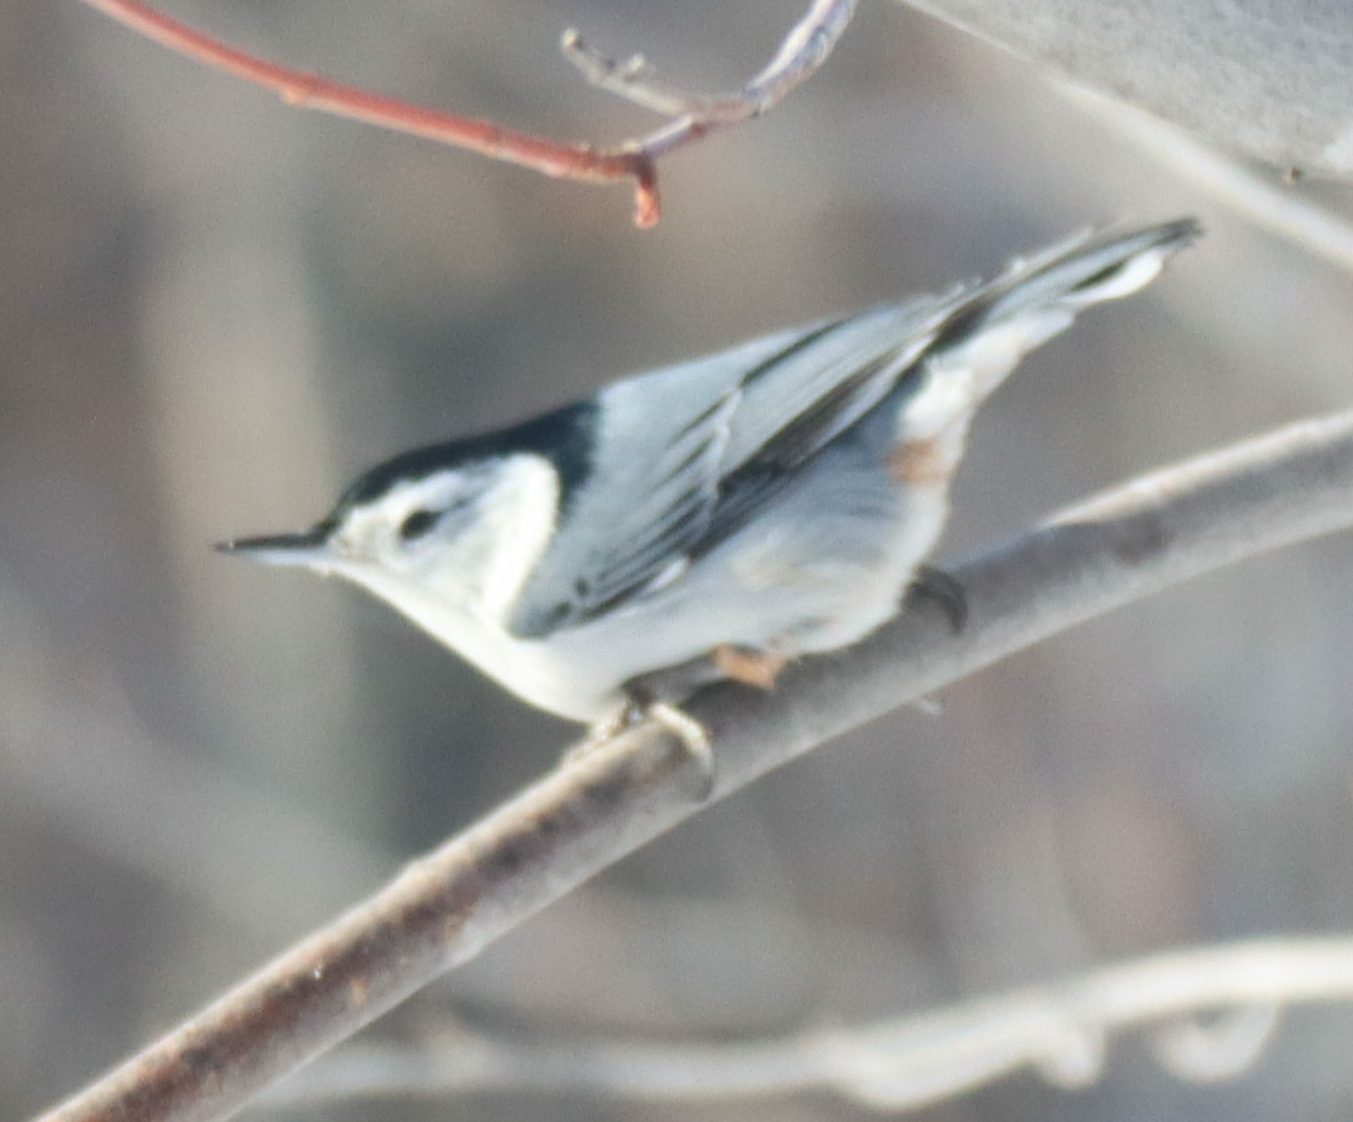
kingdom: Animalia
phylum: Chordata
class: Aves
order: Passeriformes
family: Sittidae
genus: Sitta
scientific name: Sitta carolinensis
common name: White-breasted nuthatch
